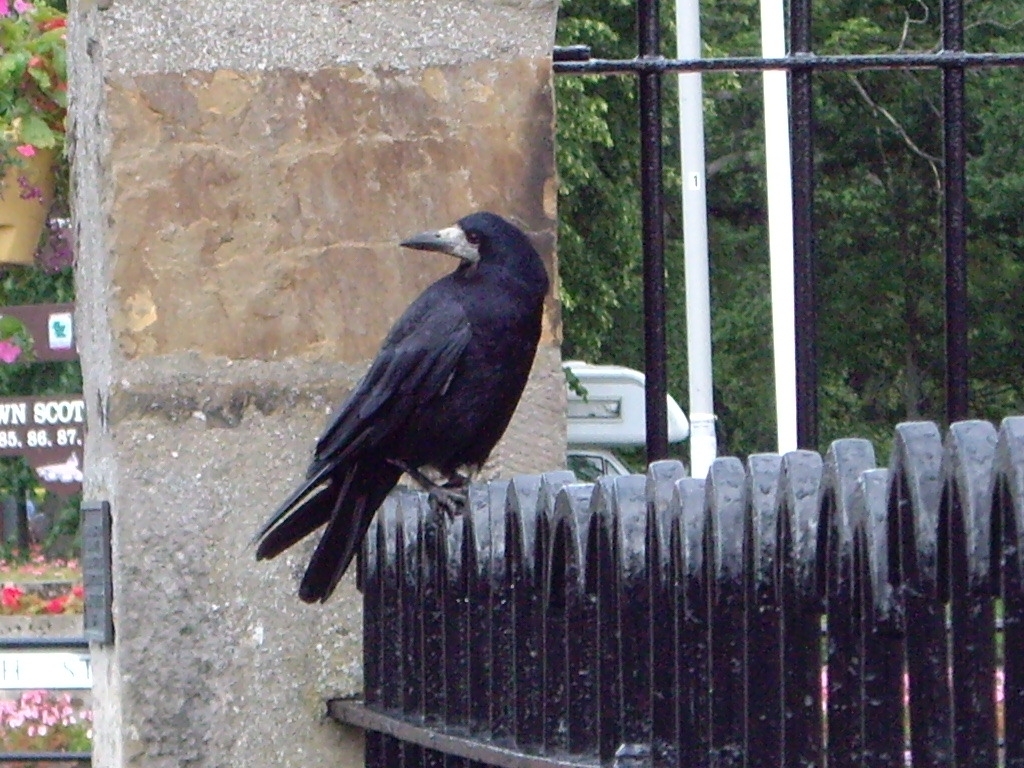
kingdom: Animalia
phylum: Chordata
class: Aves
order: Passeriformes
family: Corvidae
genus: Corvus
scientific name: Corvus frugilegus
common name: Rook
